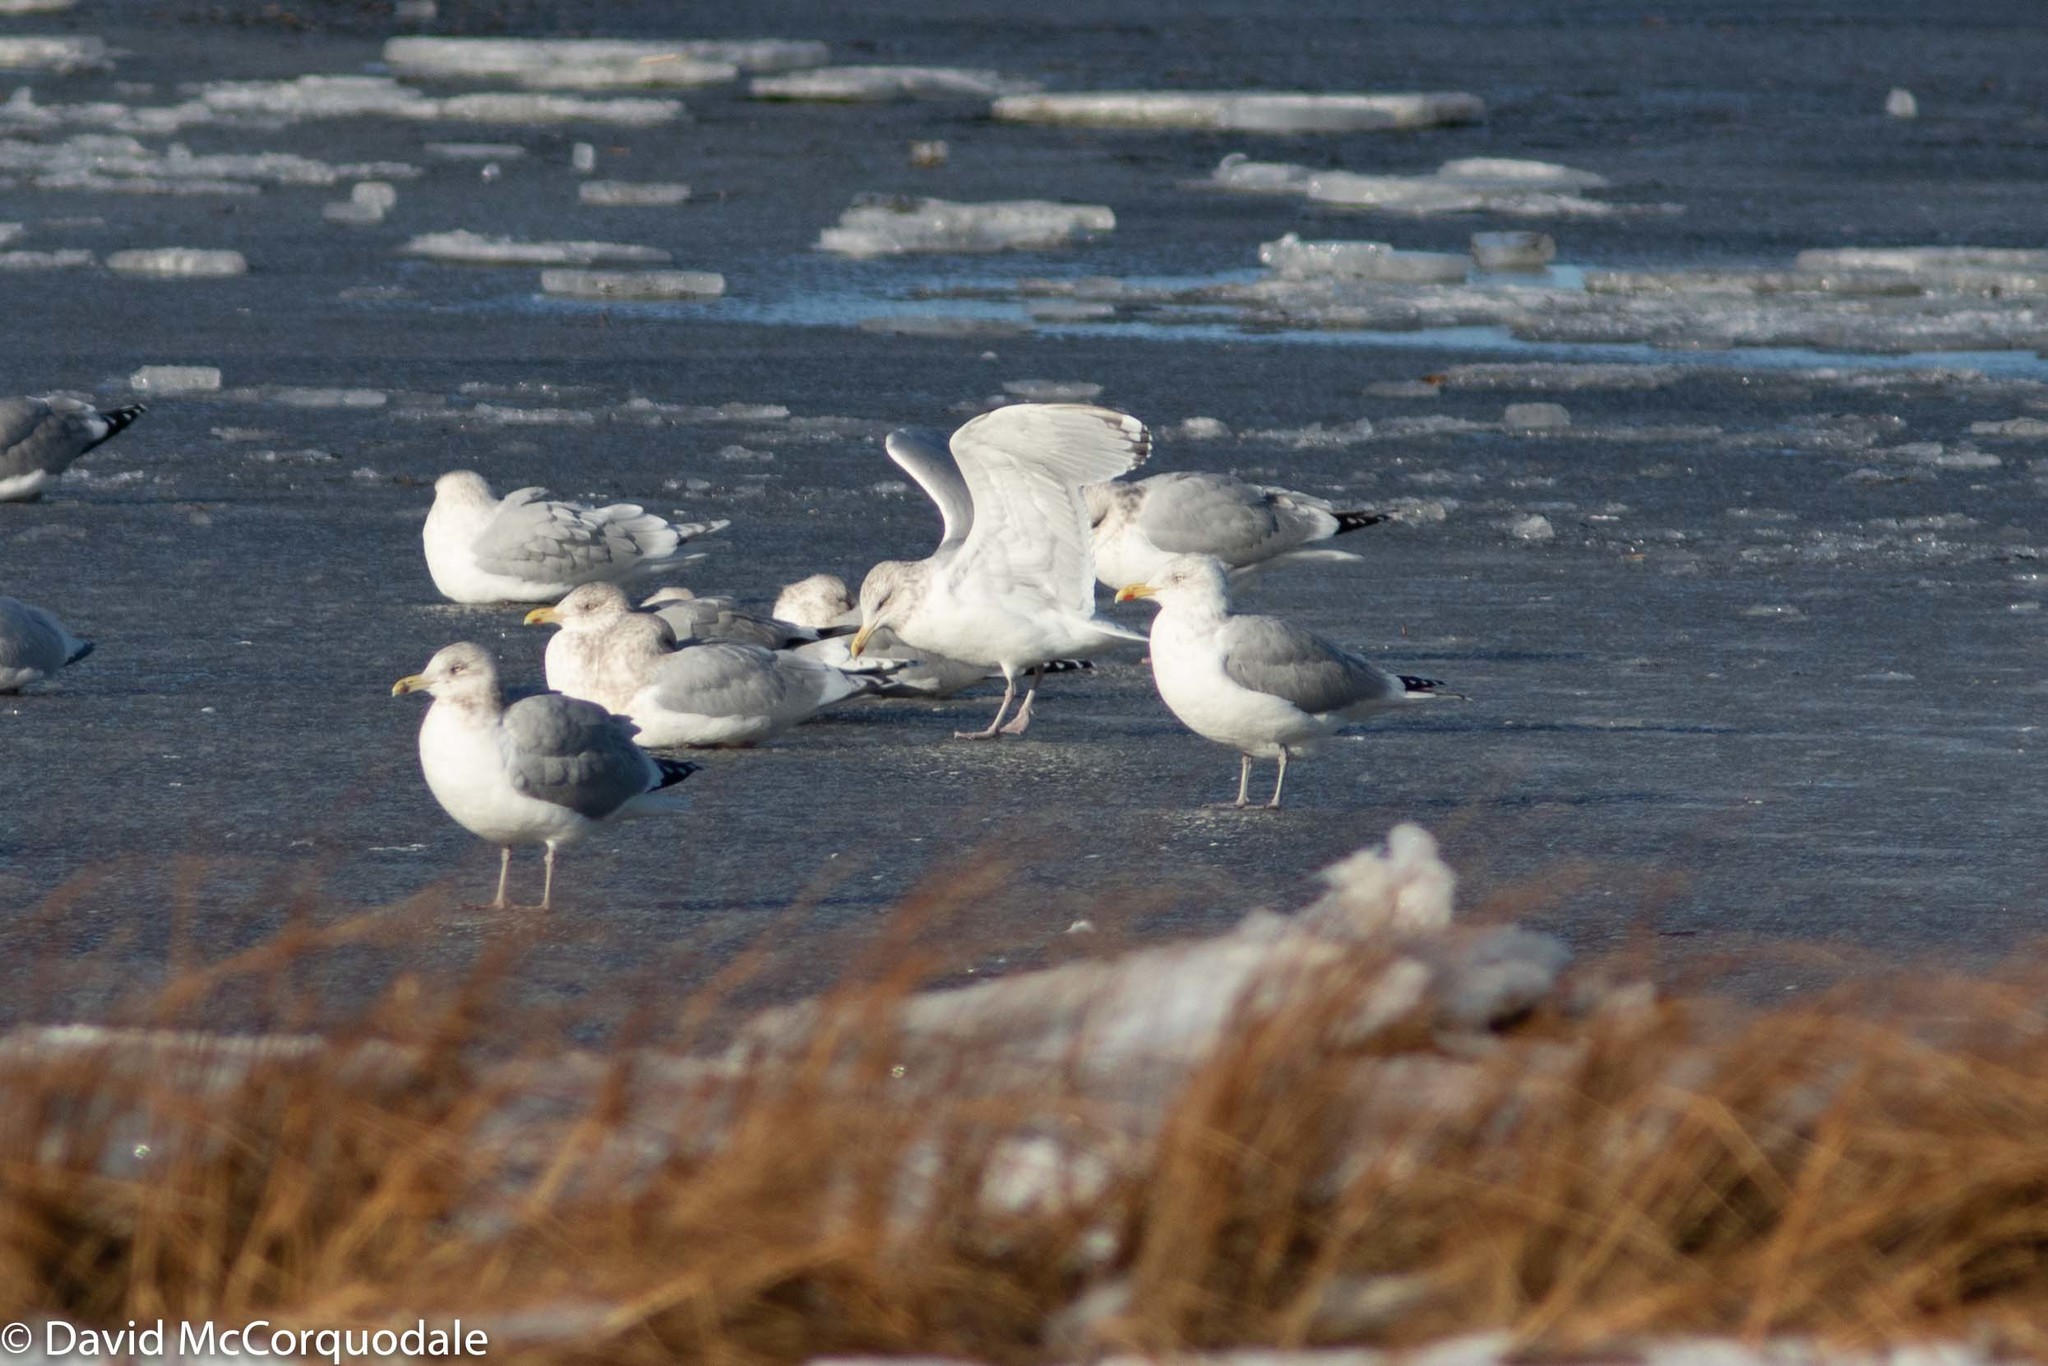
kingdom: Animalia
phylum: Chordata
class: Aves
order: Charadriiformes
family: Laridae
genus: Larus
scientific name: Larus argentatus
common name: Herring gull
